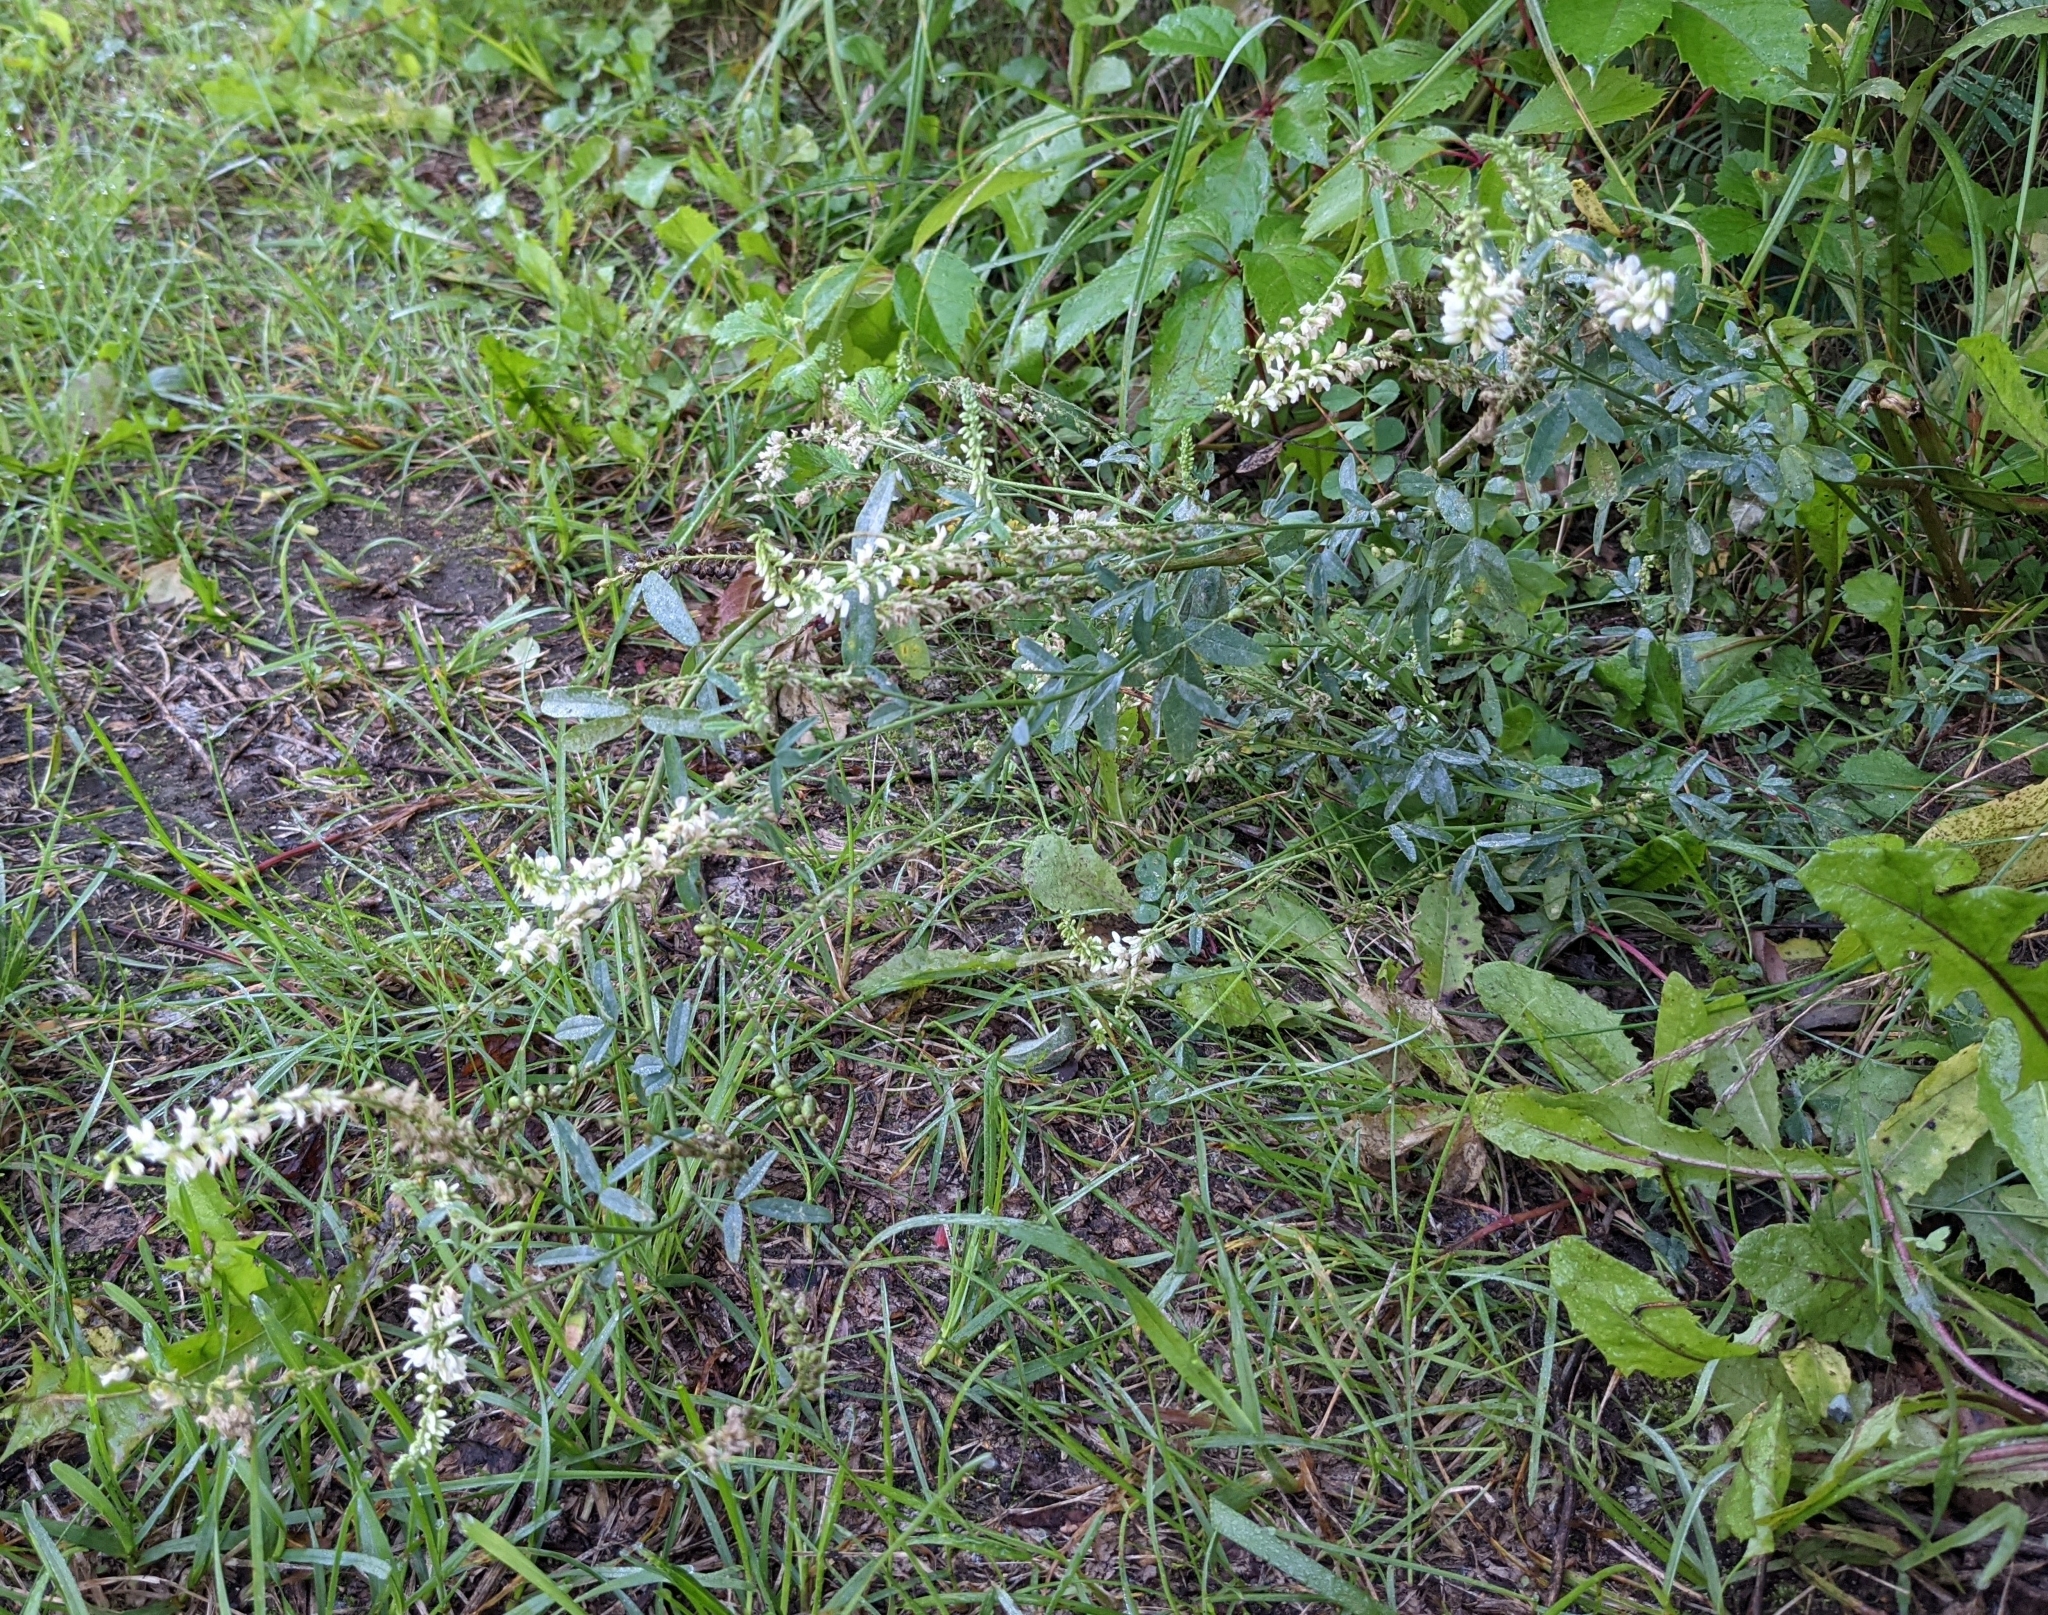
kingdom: Plantae
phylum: Tracheophyta
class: Magnoliopsida
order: Fabales
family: Fabaceae
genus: Melilotus
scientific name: Melilotus albus
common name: White melilot
